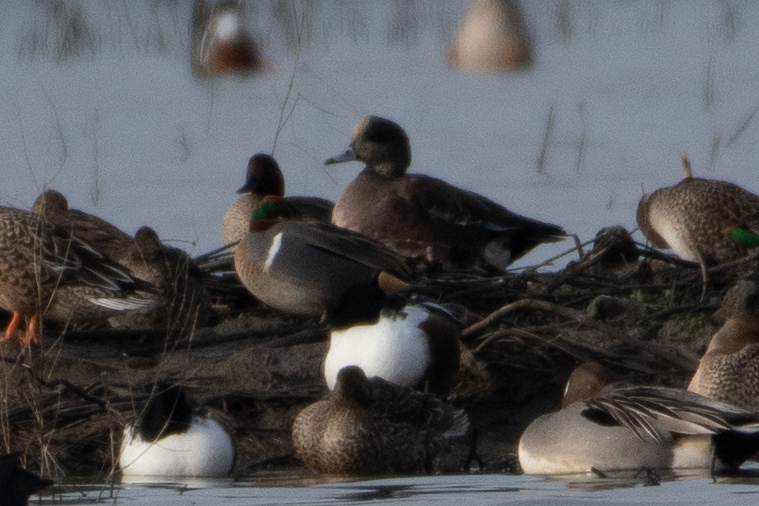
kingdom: Animalia
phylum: Chordata
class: Aves
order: Anseriformes
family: Anatidae
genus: Anas
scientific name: Anas crecca
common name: Eurasian teal
